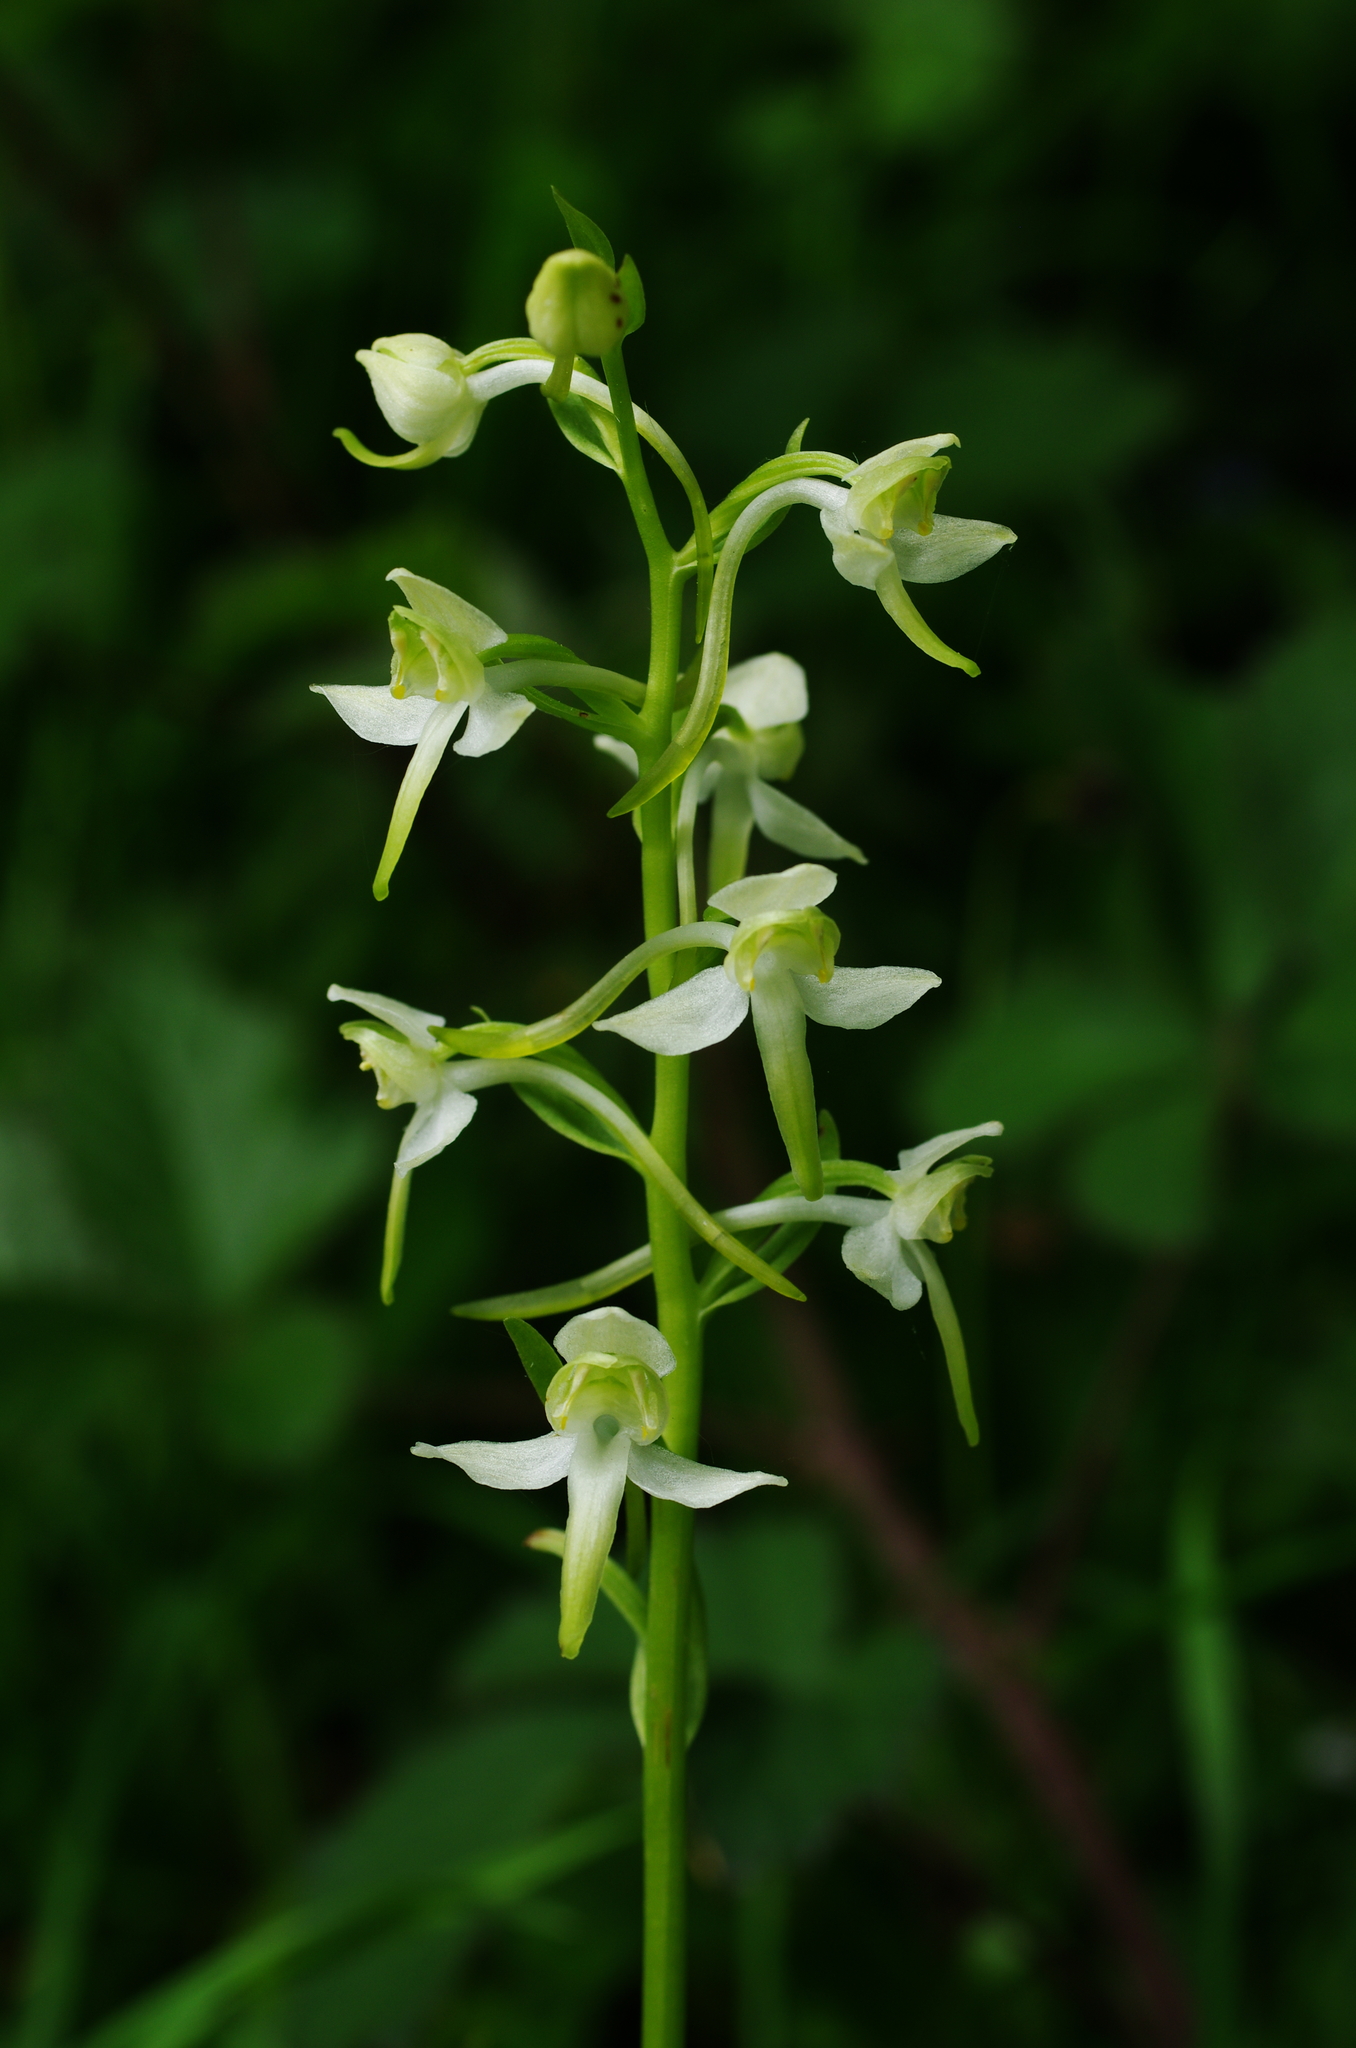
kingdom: Plantae
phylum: Tracheophyta
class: Liliopsida
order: Asparagales
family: Orchidaceae
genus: Platanthera
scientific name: Platanthera chlorantha
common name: Greater butterfly-orchid
